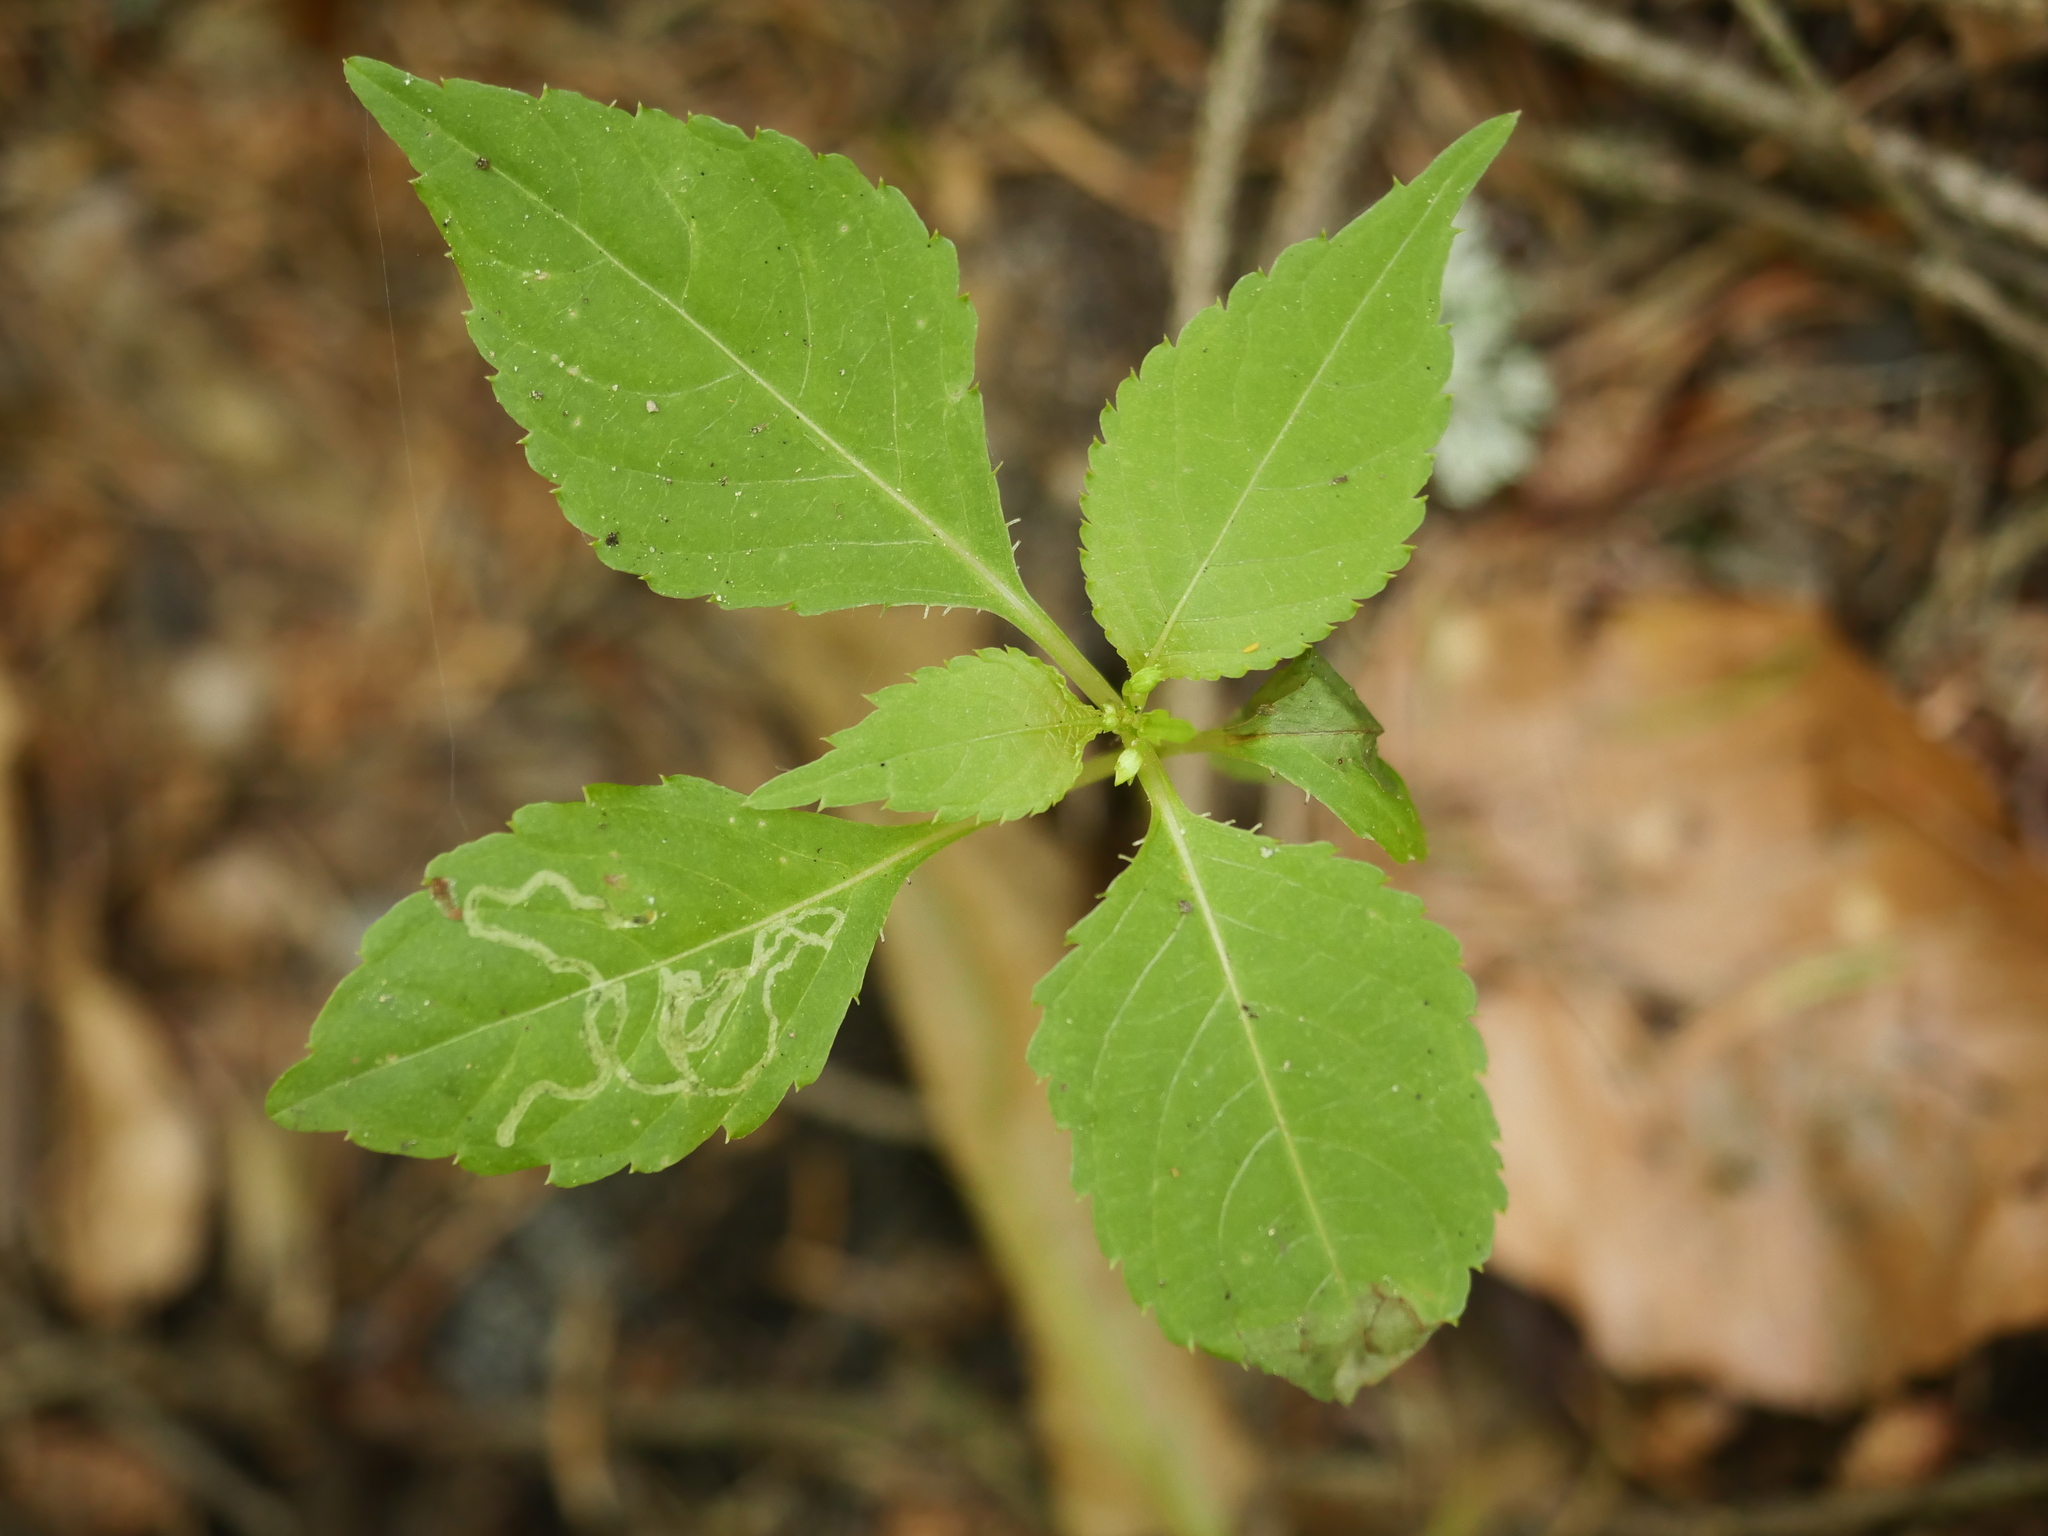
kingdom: Plantae
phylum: Tracheophyta
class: Magnoliopsida
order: Ericales
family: Balsaminaceae
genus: Impatiens
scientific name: Impatiens parviflora
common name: Small balsam
